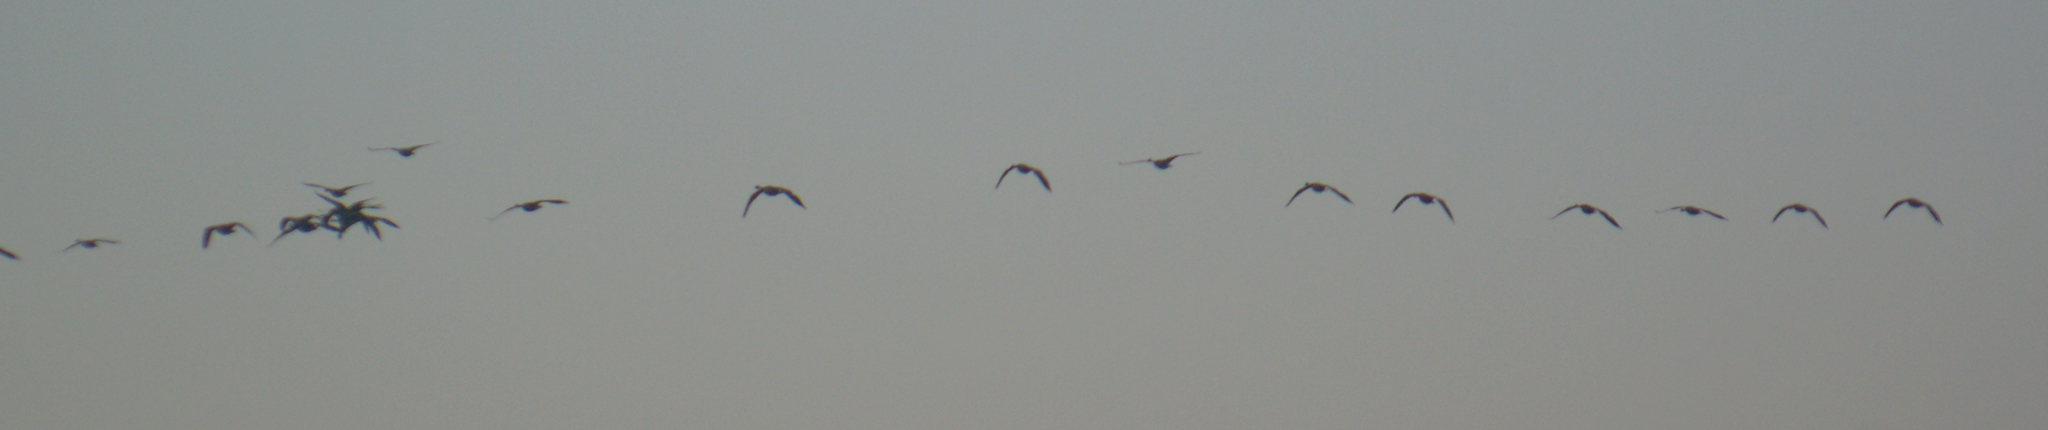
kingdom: Animalia
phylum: Chordata
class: Aves
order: Anseriformes
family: Anatidae
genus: Branta
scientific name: Branta canadensis
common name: Canada goose
